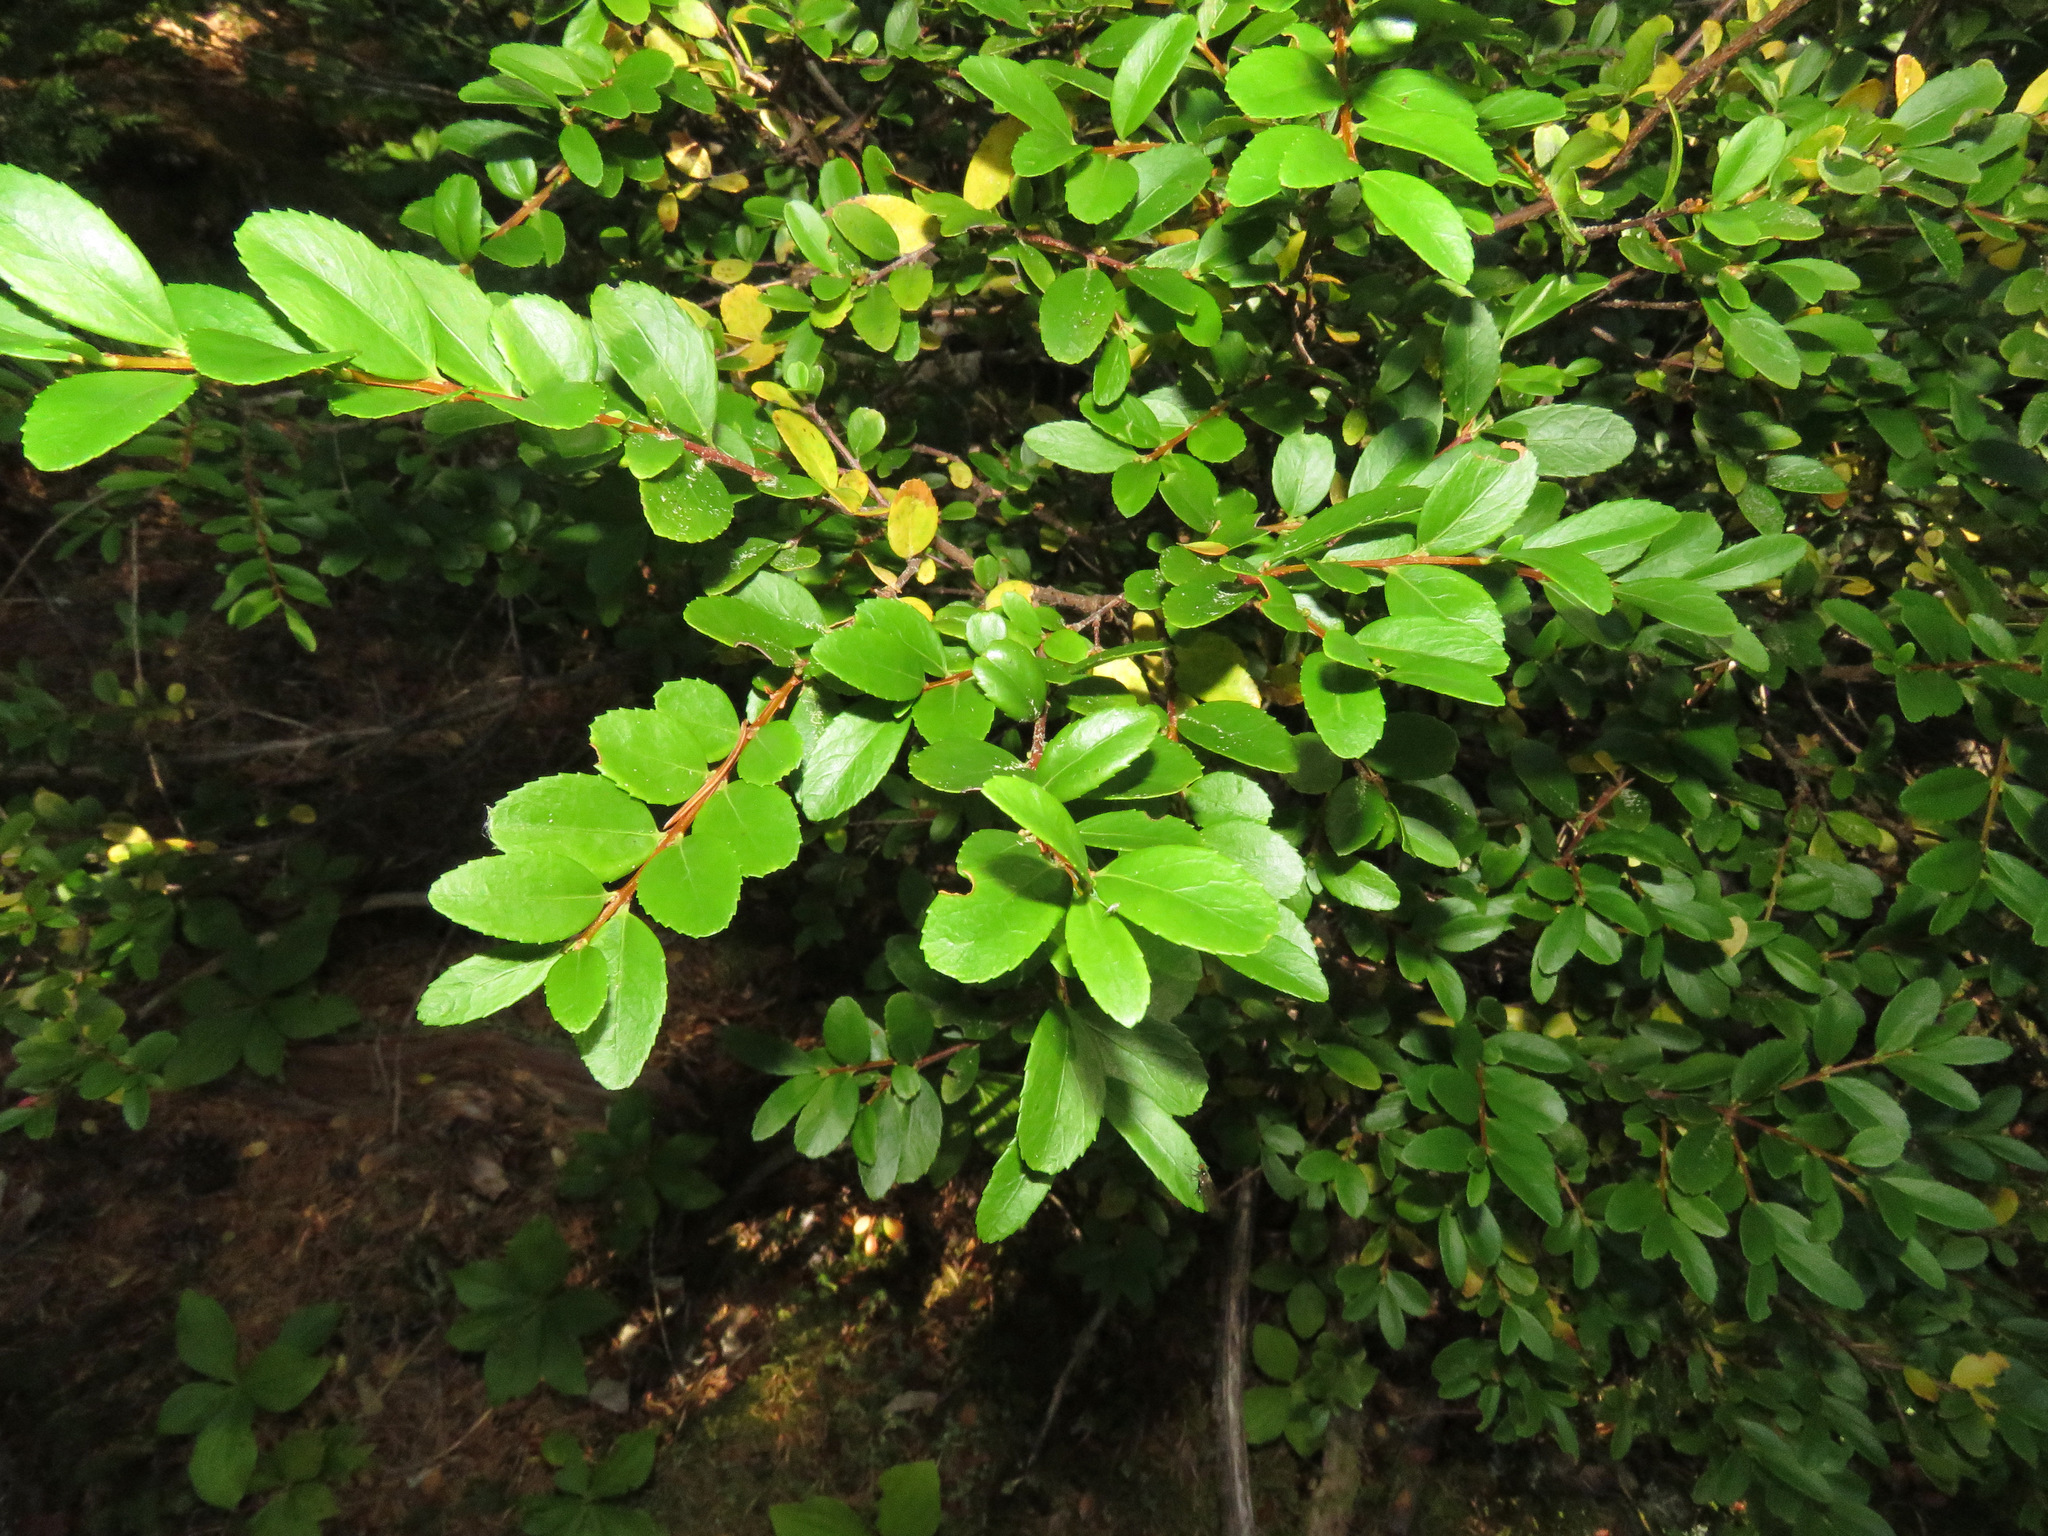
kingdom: Plantae
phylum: Tracheophyta
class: Magnoliopsida
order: Celastrales
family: Celastraceae
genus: Paxistima
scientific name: Paxistima myrsinites
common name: Mountain-lover
